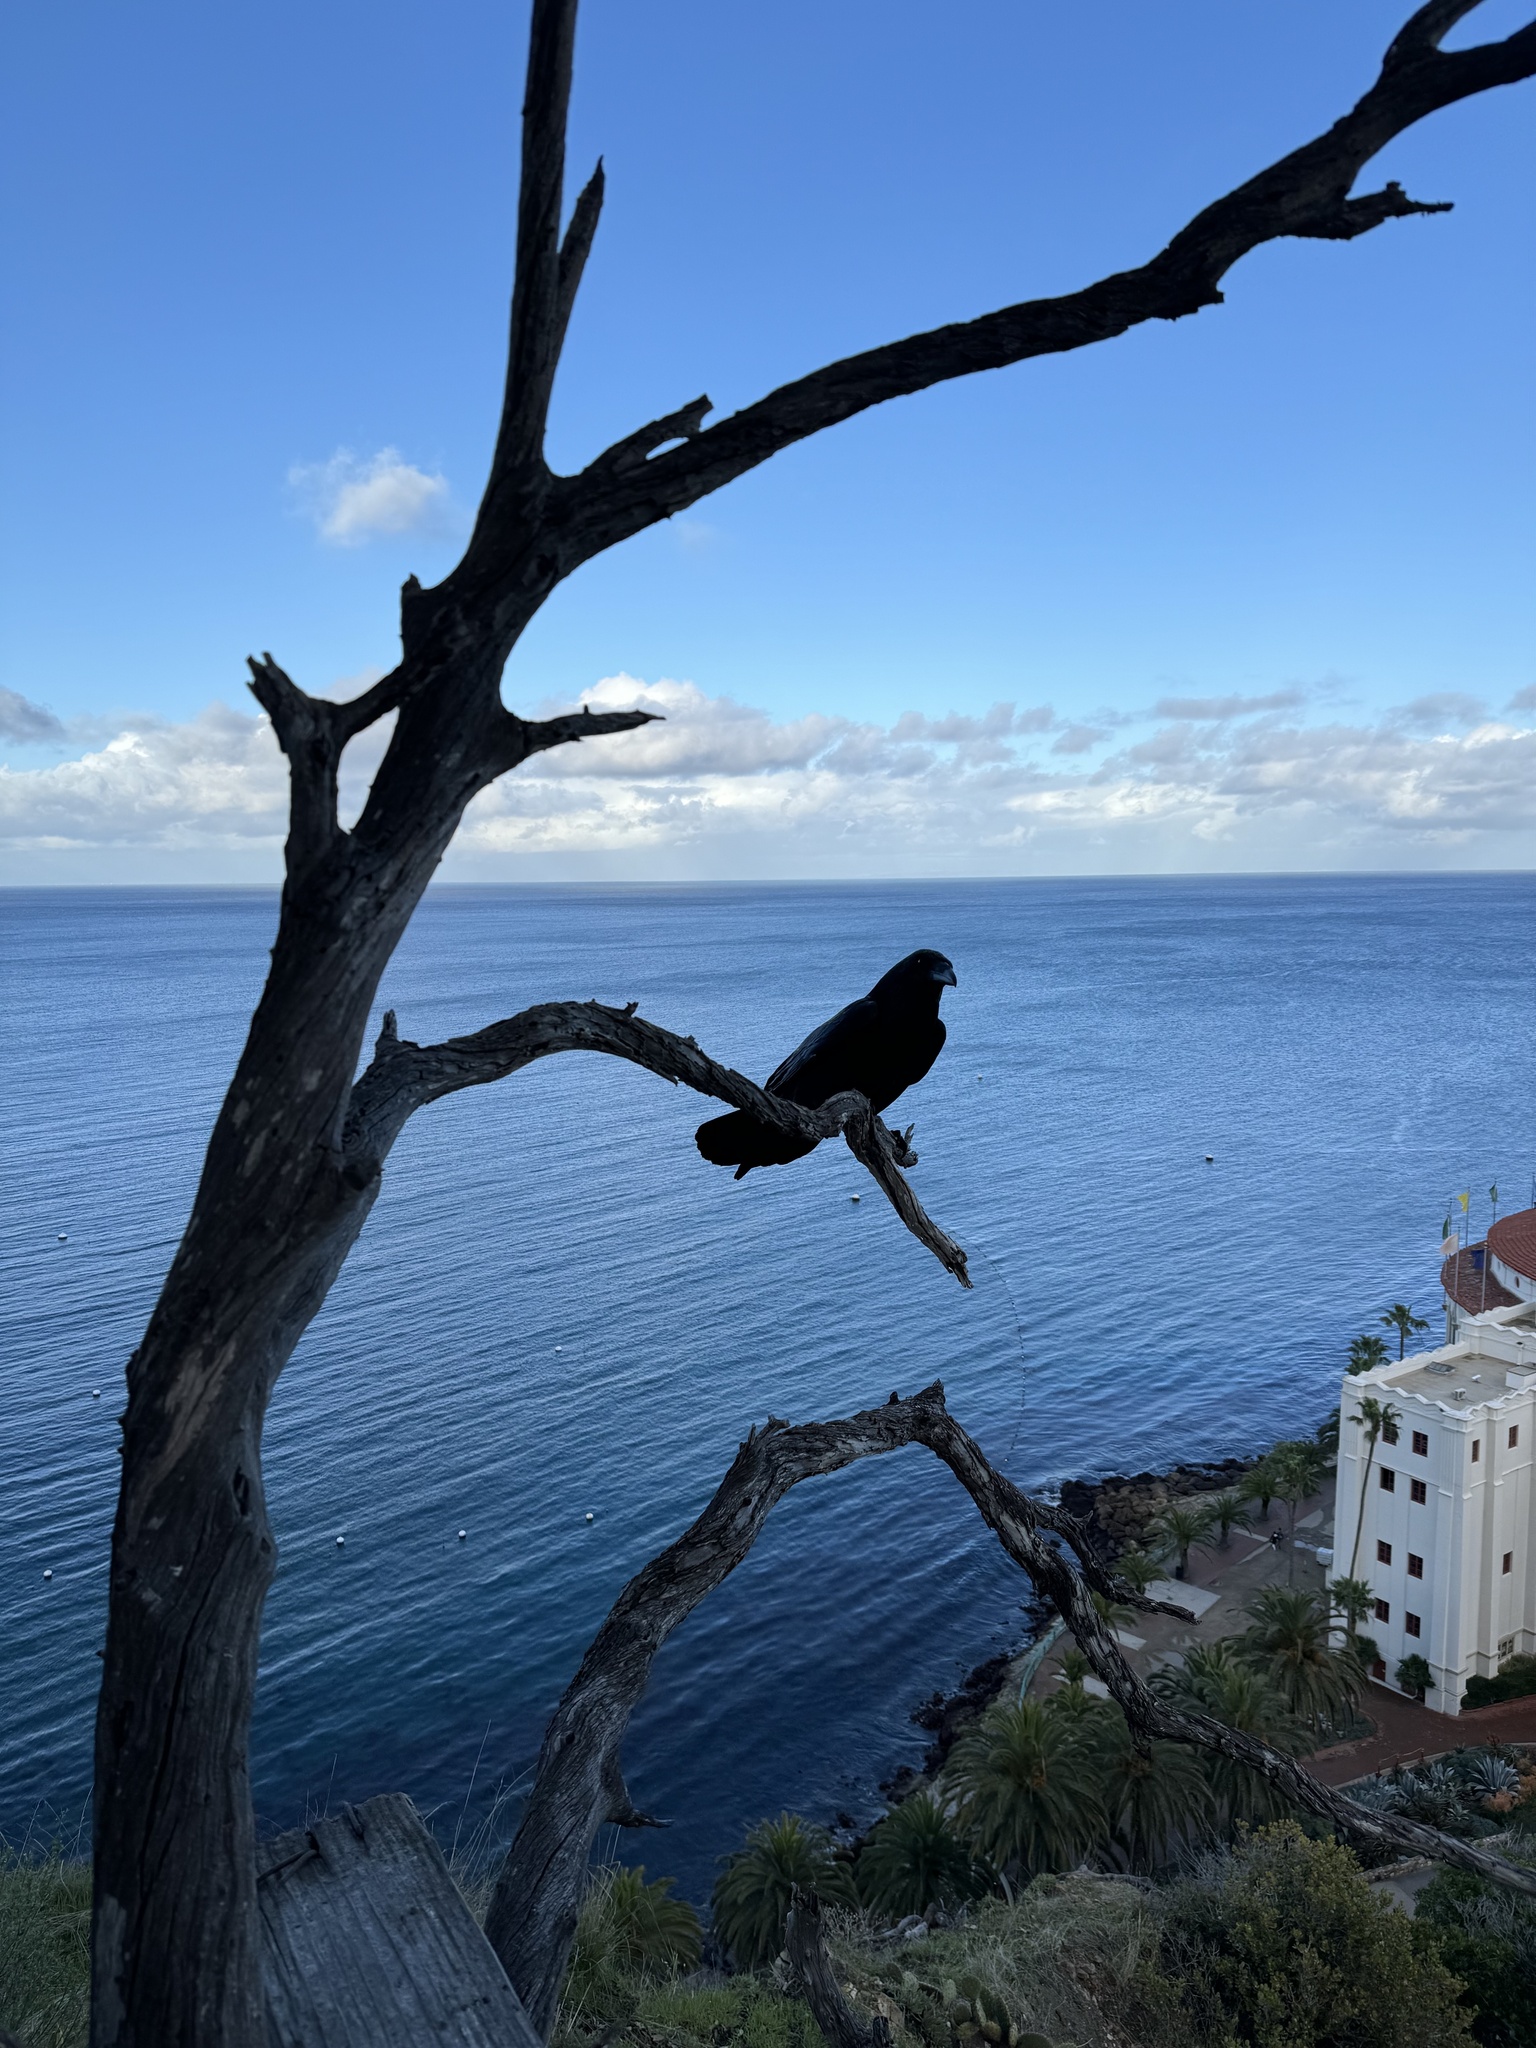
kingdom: Animalia
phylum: Chordata
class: Aves
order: Passeriformes
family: Corvidae
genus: Corvus
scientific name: Corvus corax
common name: Common raven
